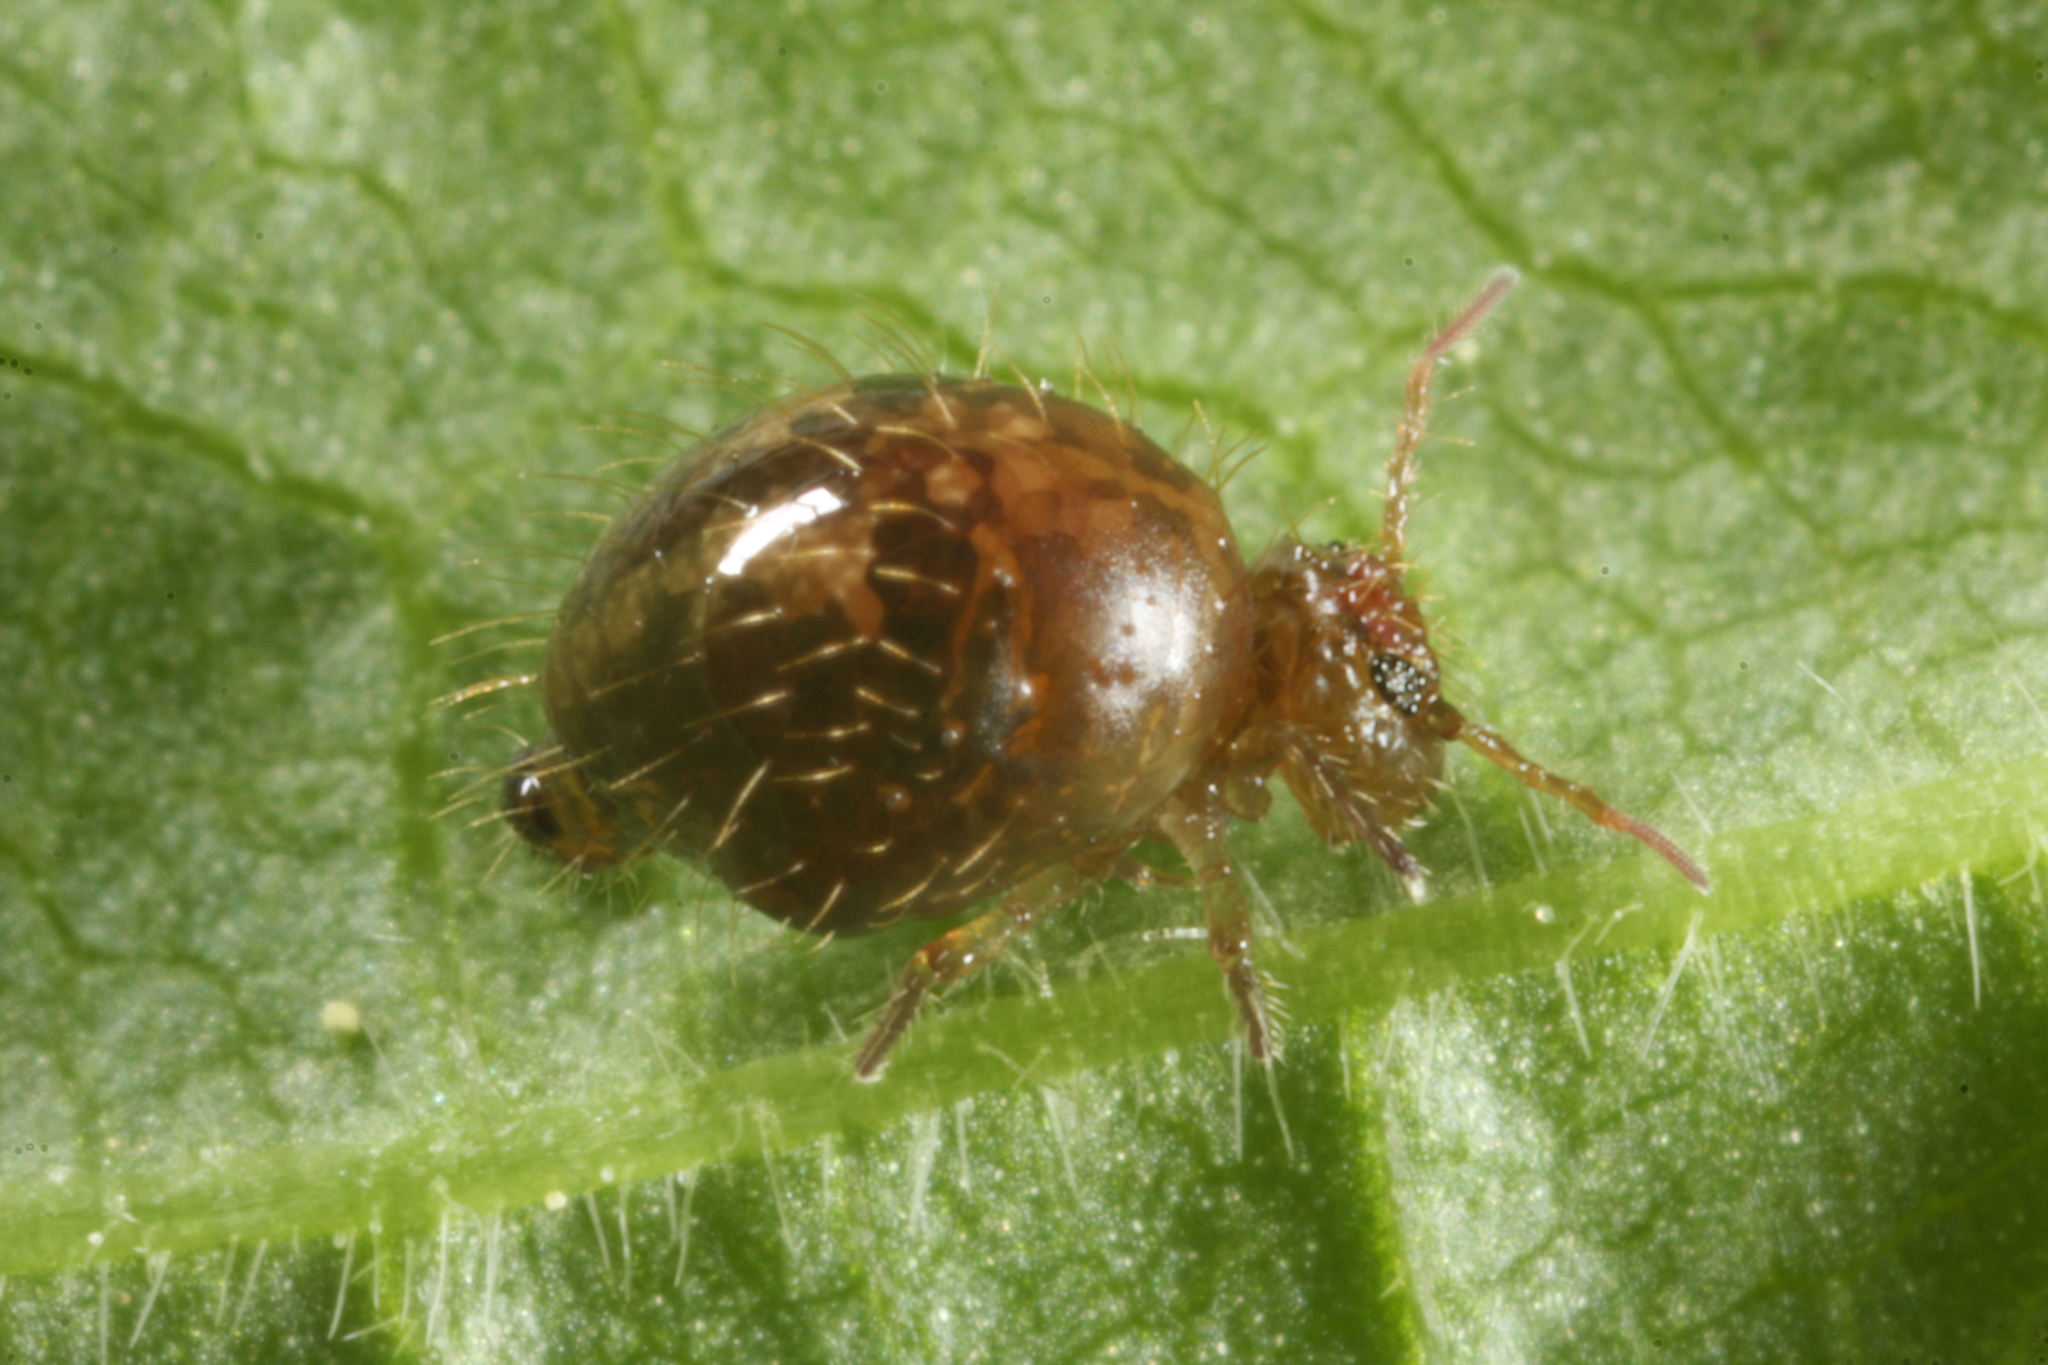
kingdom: Animalia
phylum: Arthropoda
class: Collembola
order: Symphypleona
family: Sminthuridae
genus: Allacma
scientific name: Allacma fusca
